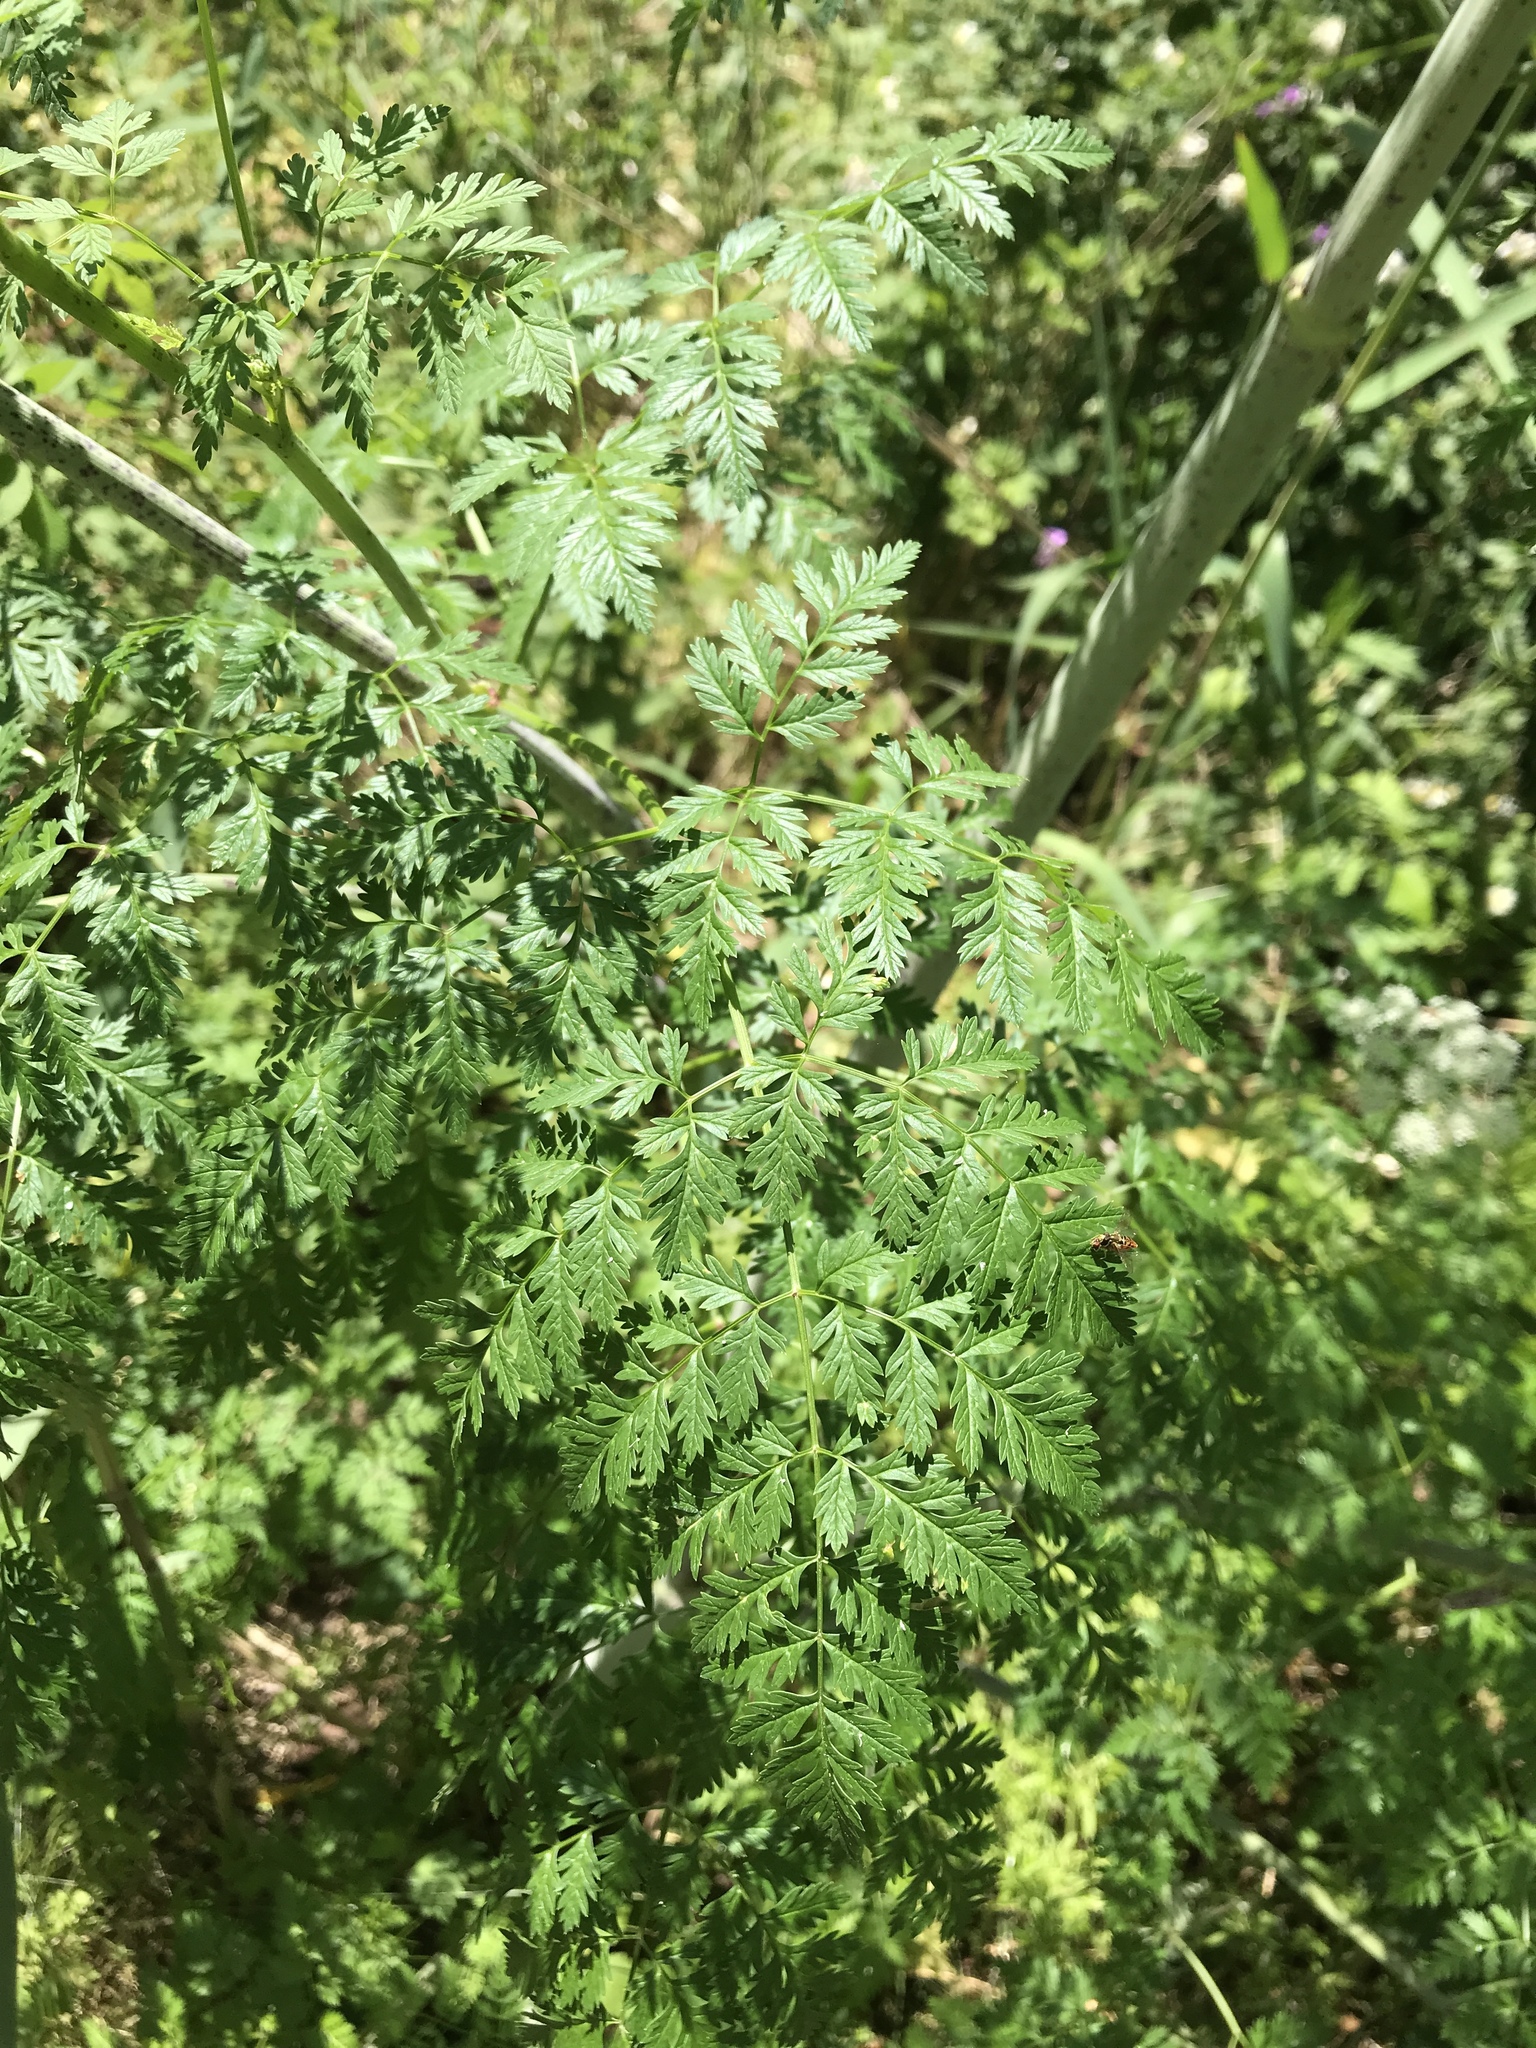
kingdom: Plantae
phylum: Tracheophyta
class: Magnoliopsida
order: Apiales
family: Apiaceae
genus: Conium
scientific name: Conium maculatum
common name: Hemlock
